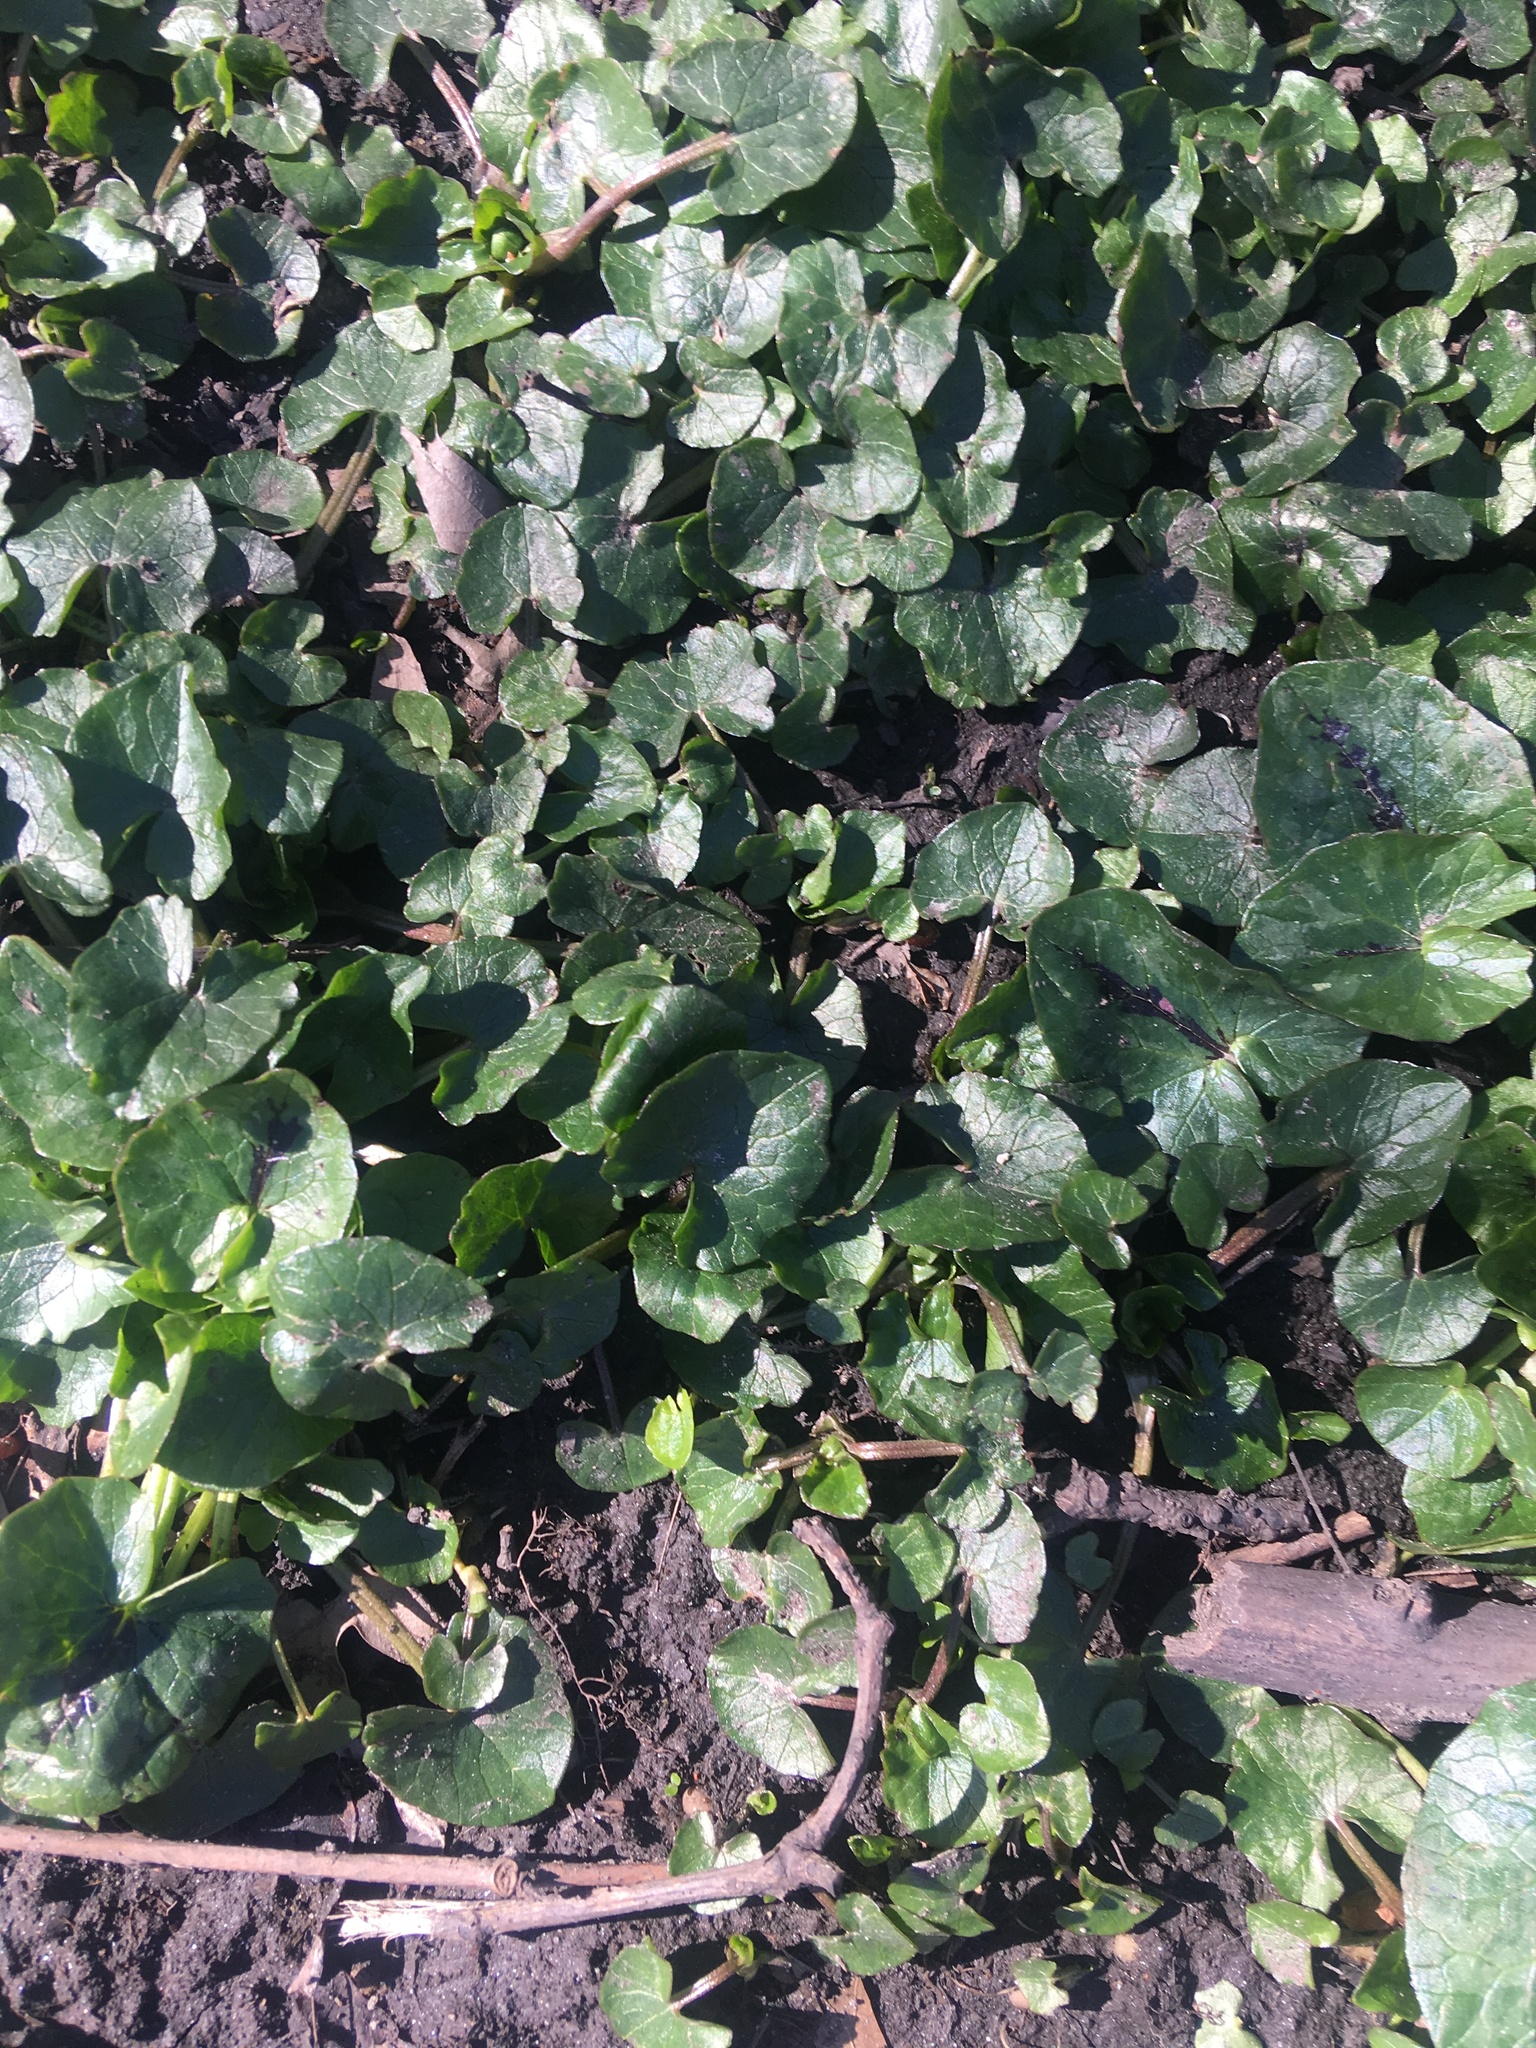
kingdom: Plantae
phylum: Tracheophyta
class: Magnoliopsida
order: Ranunculales
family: Ranunculaceae
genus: Ficaria
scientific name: Ficaria verna
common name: Lesser celandine
